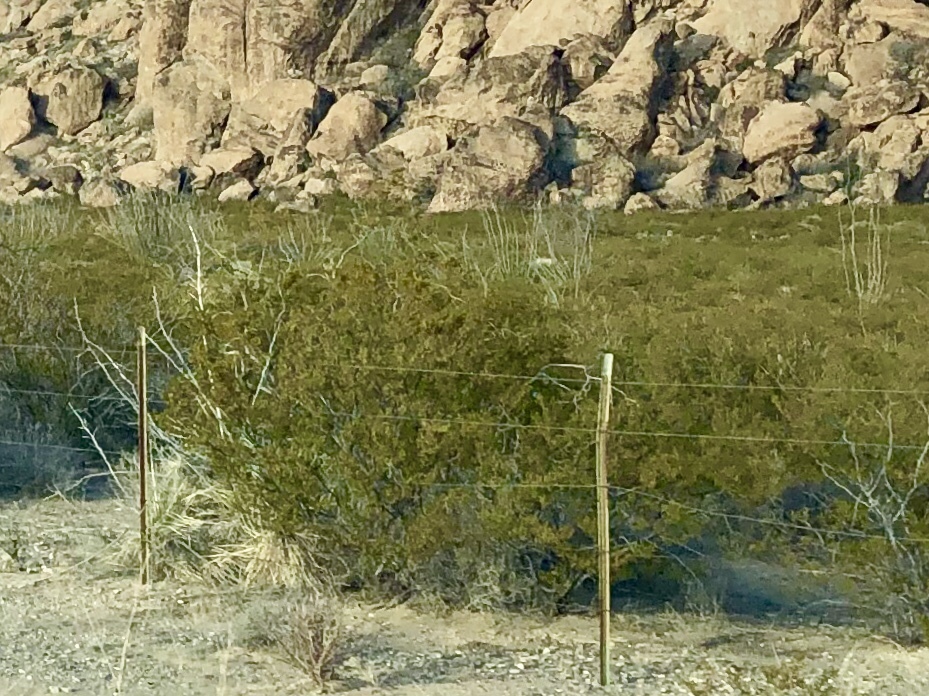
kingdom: Plantae
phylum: Tracheophyta
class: Magnoliopsida
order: Zygophyllales
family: Zygophyllaceae
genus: Larrea
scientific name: Larrea tridentata
